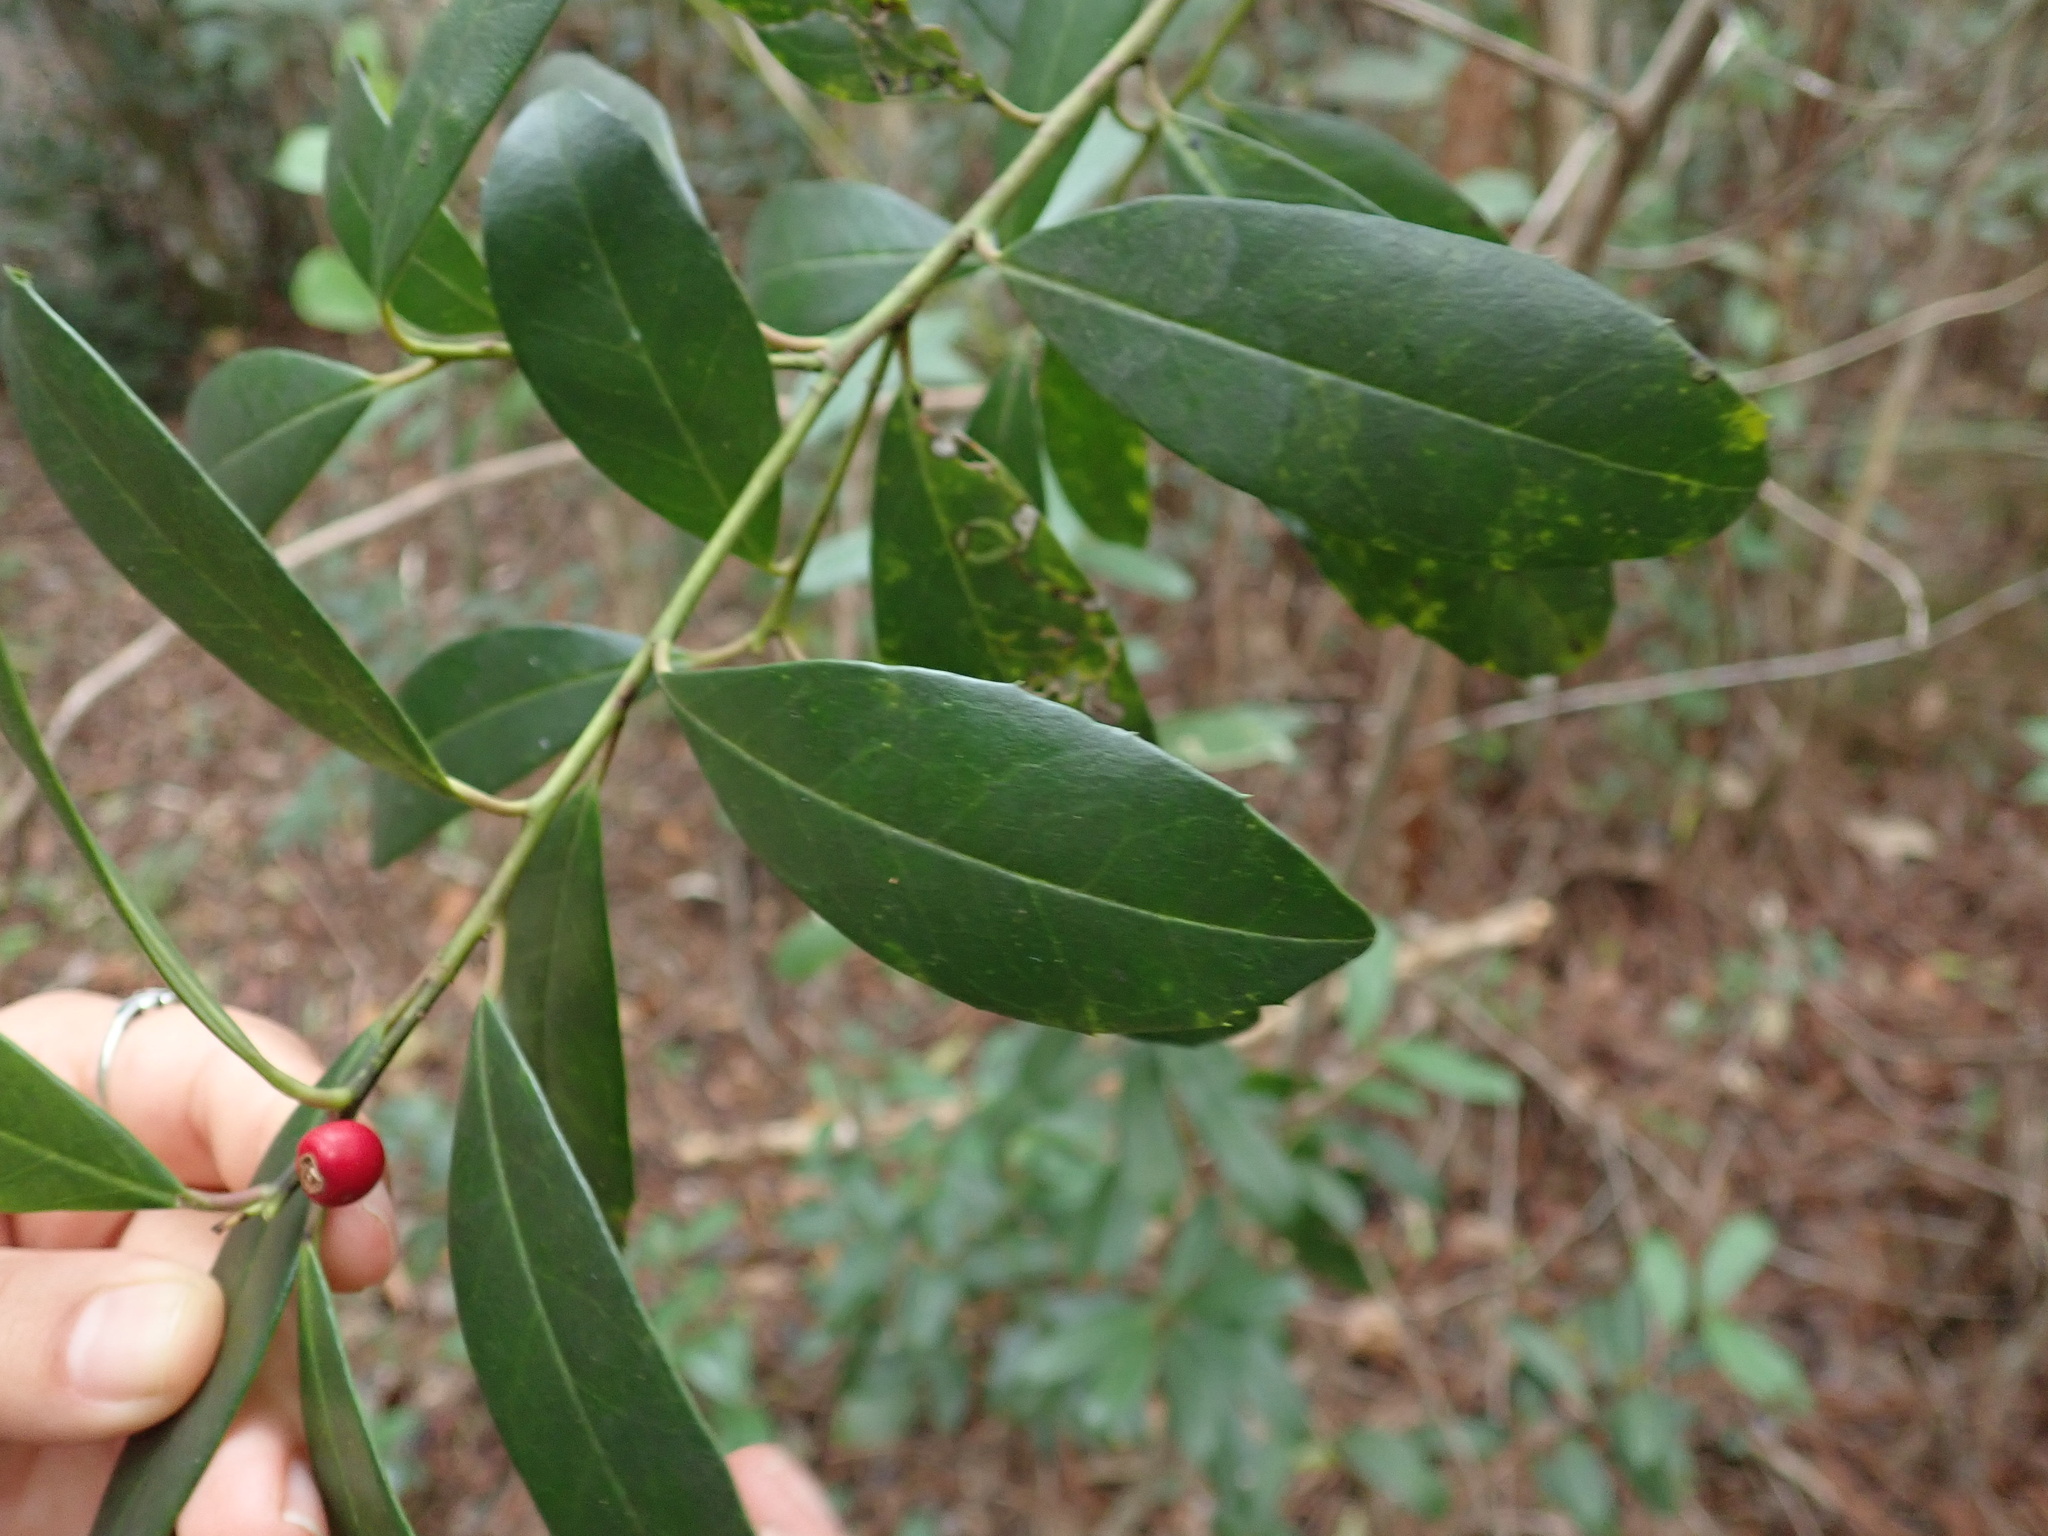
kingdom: Plantae
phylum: Tracheophyta
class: Magnoliopsida
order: Aquifoliales
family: Aquifoliaceae
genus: Ilex
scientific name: Ilex cassine
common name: Dahoon
